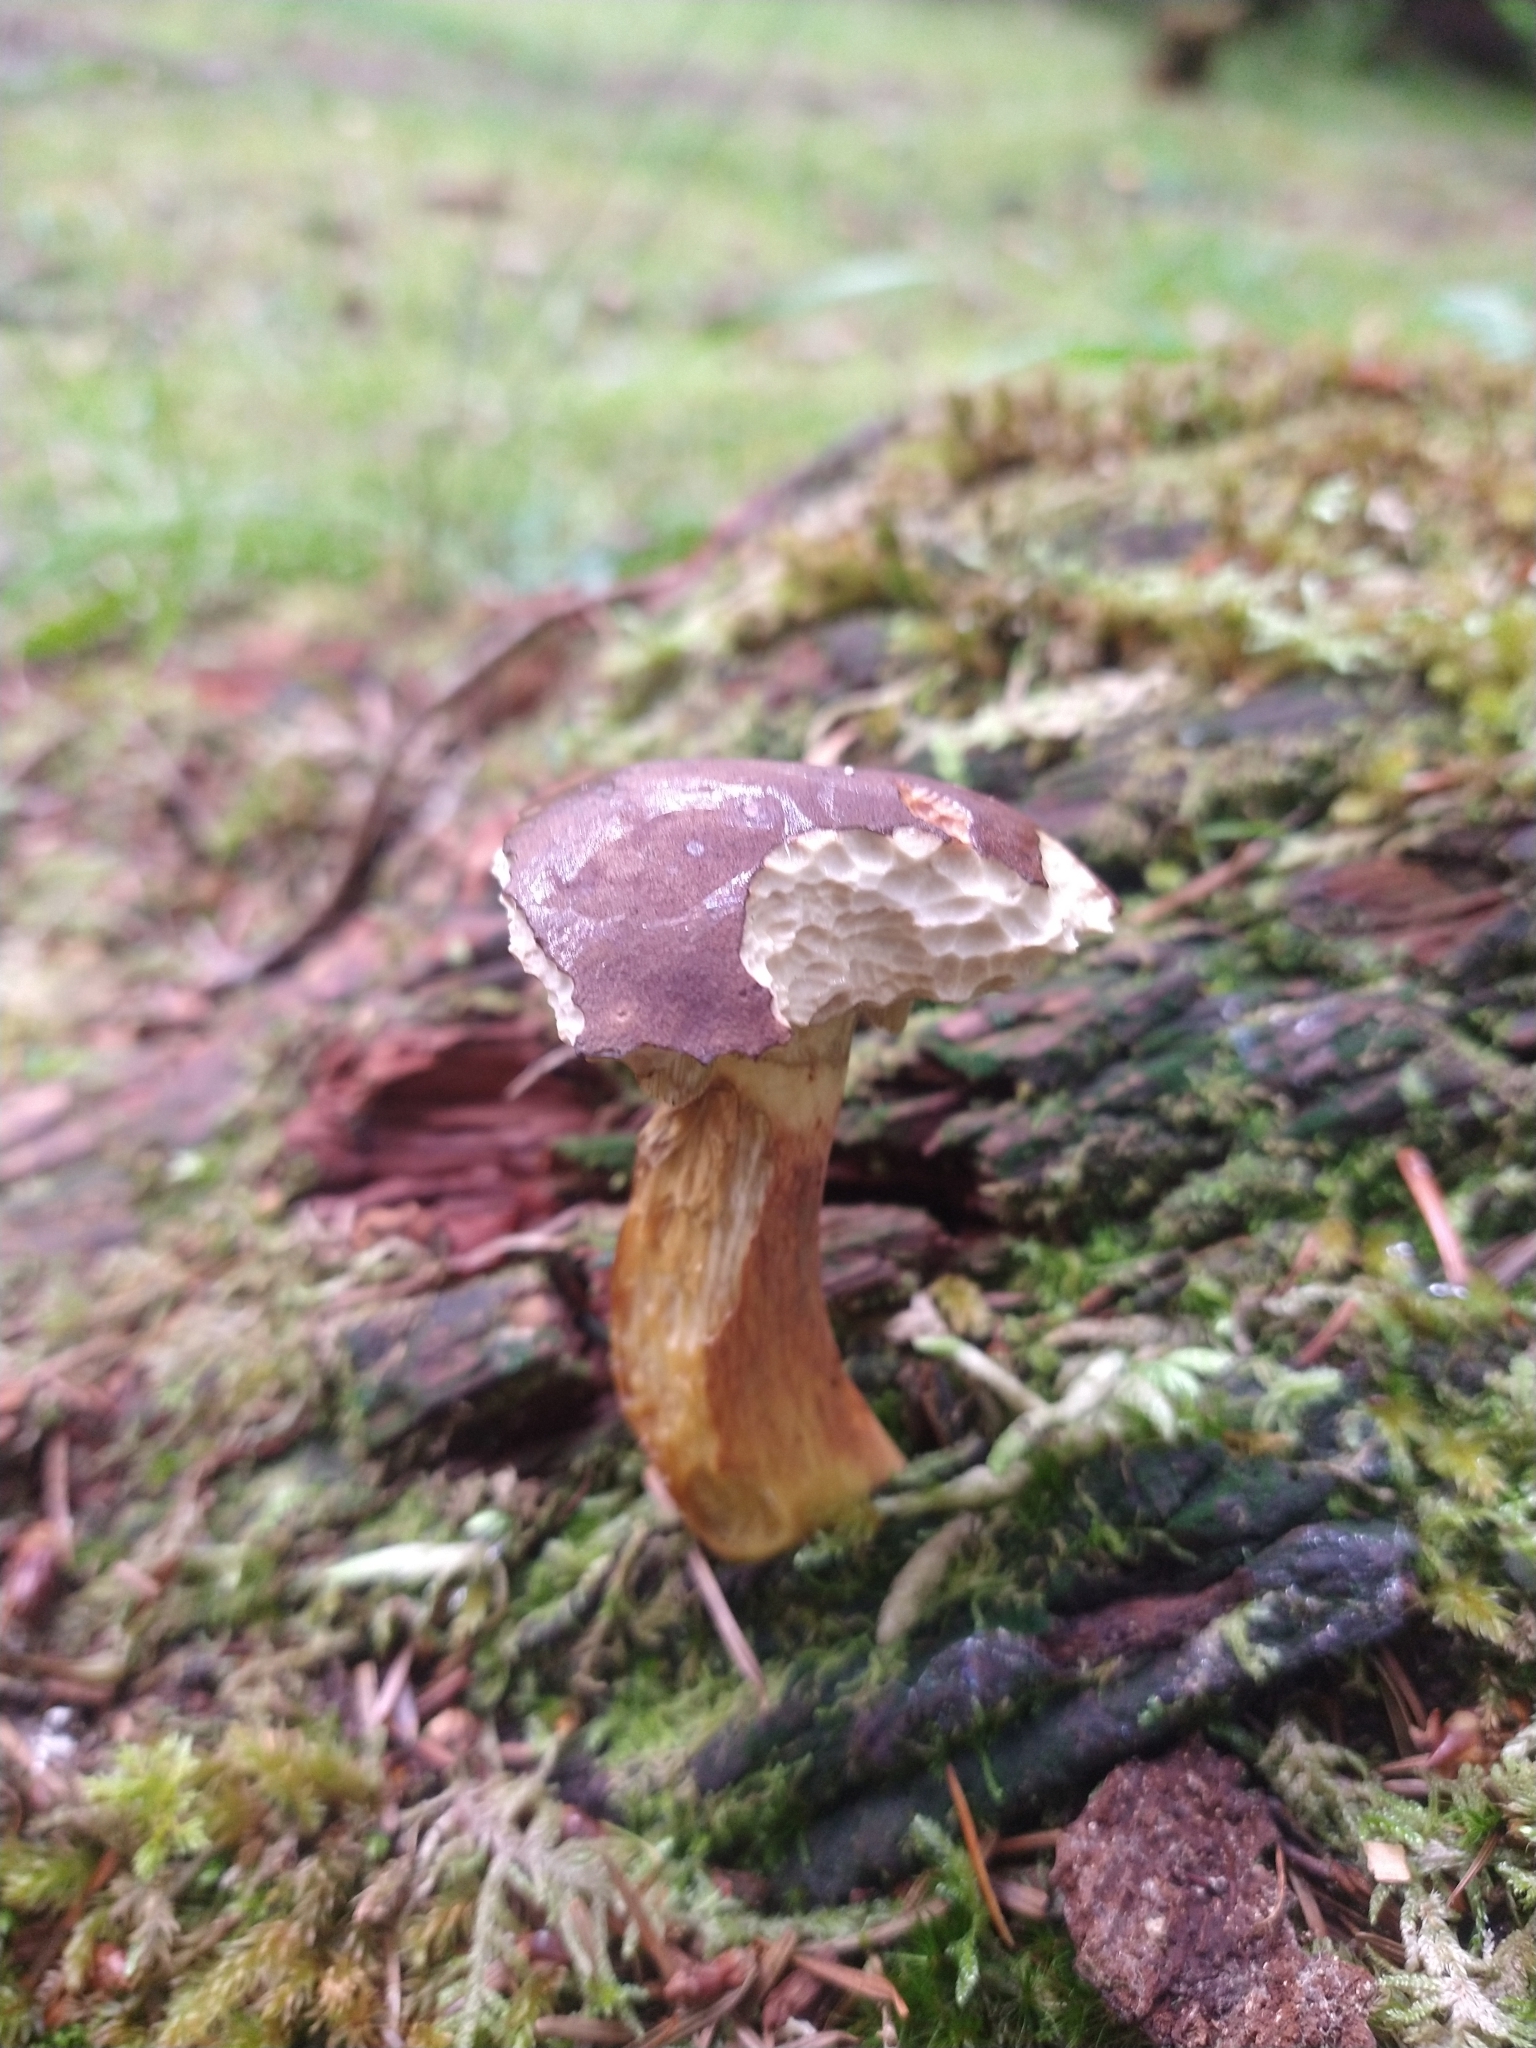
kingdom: Fungi
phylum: Basidiomycota
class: Agaricomycetes
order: Boletales
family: Boletaceae
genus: Imleria
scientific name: Imleria badia
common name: Bay bolete
